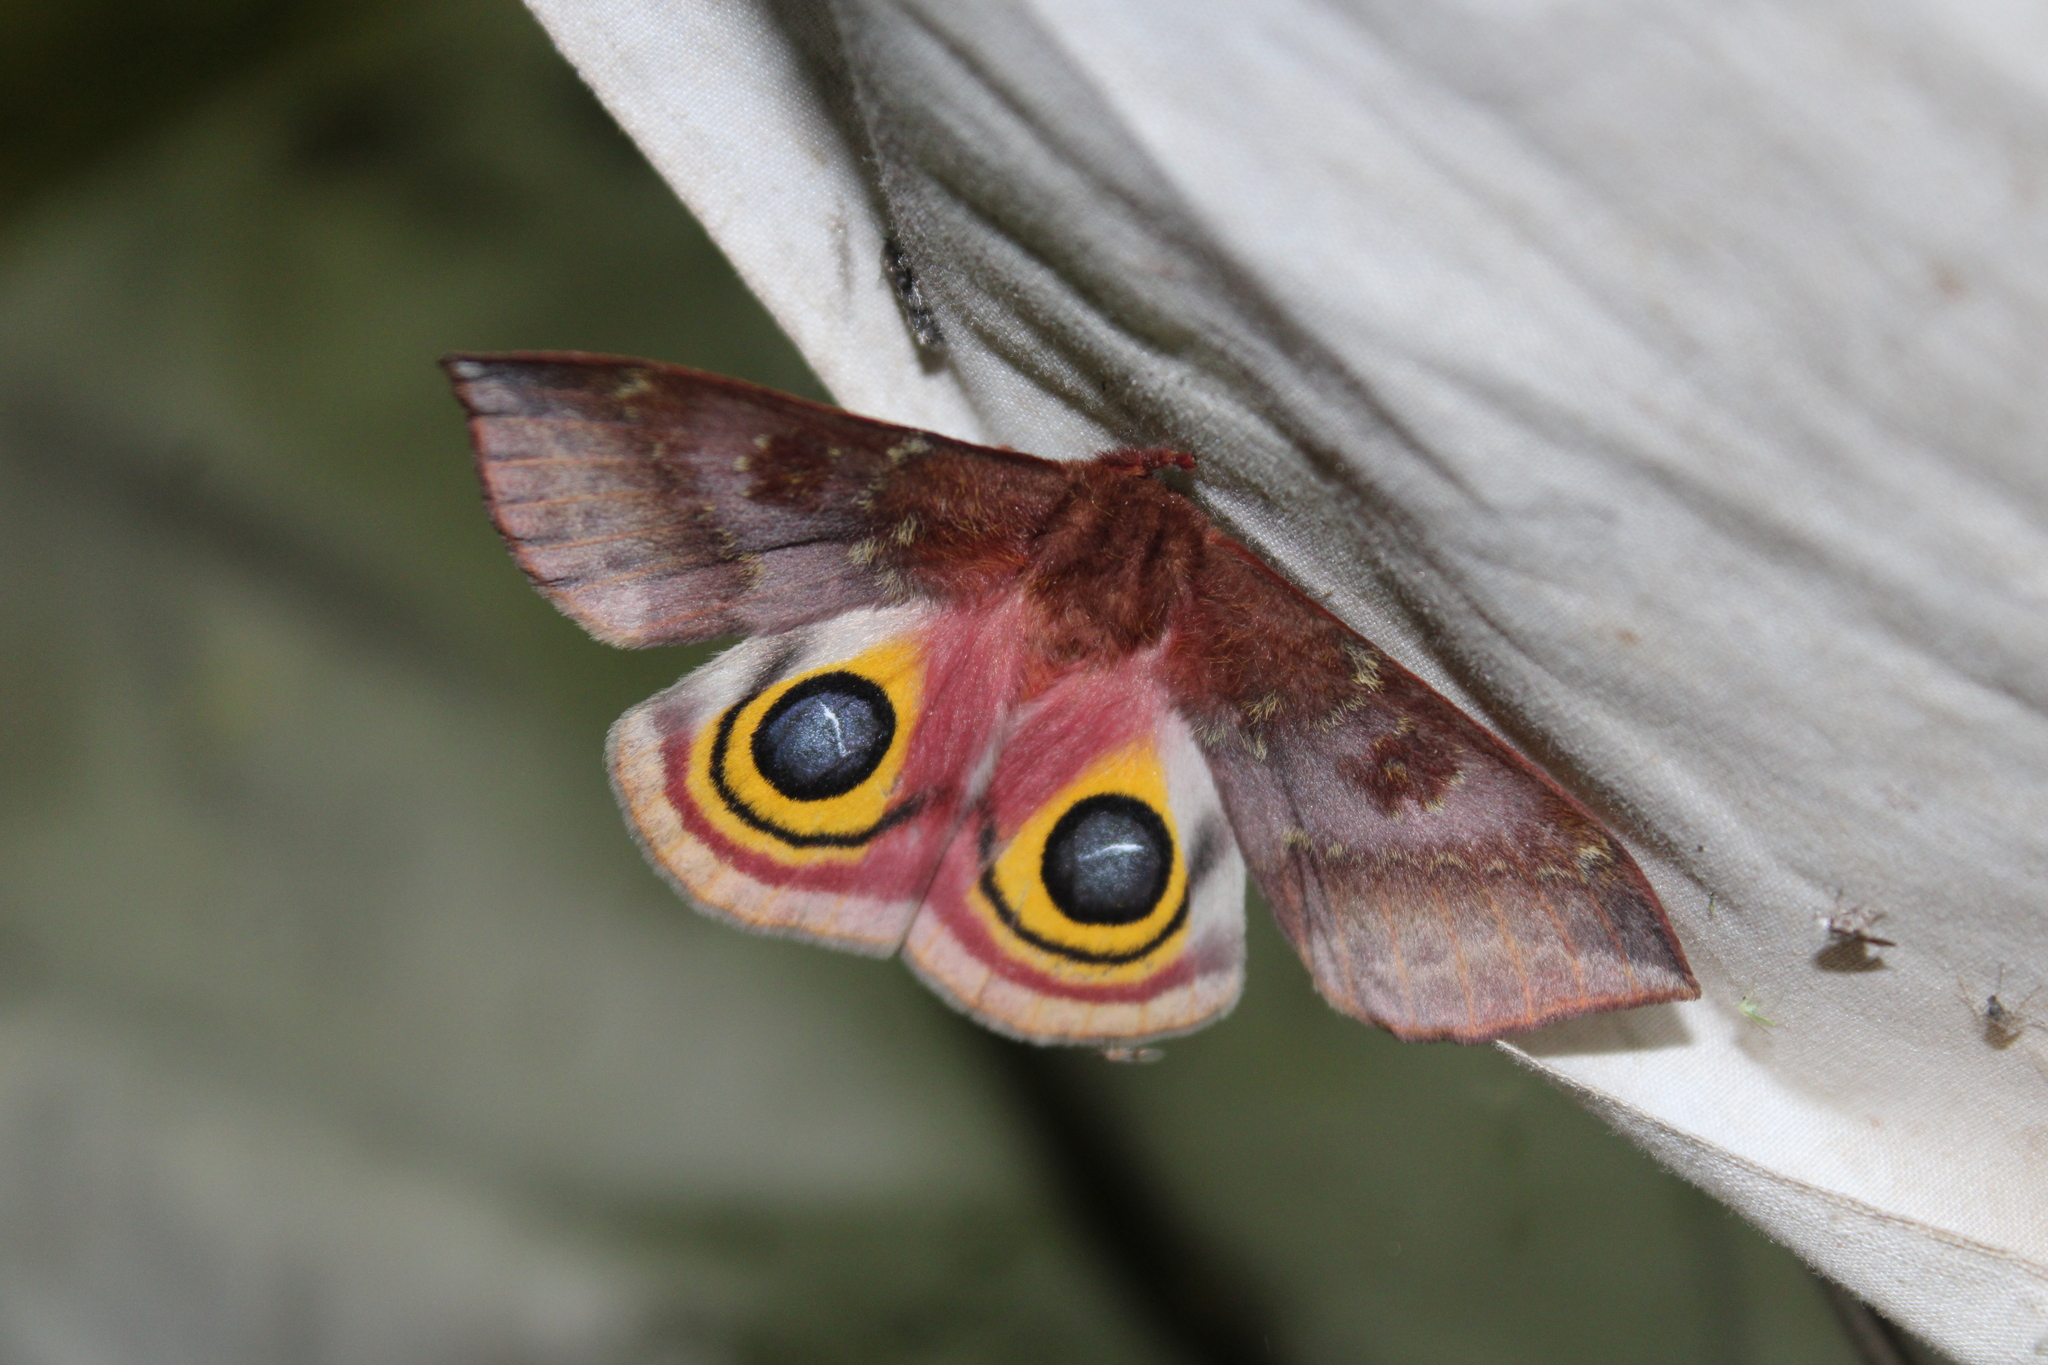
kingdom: Animalia
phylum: Arthropoda
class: Insecta
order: Lepidoptera
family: Saturniidae
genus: Automeris
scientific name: Automeris io
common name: Io moth
